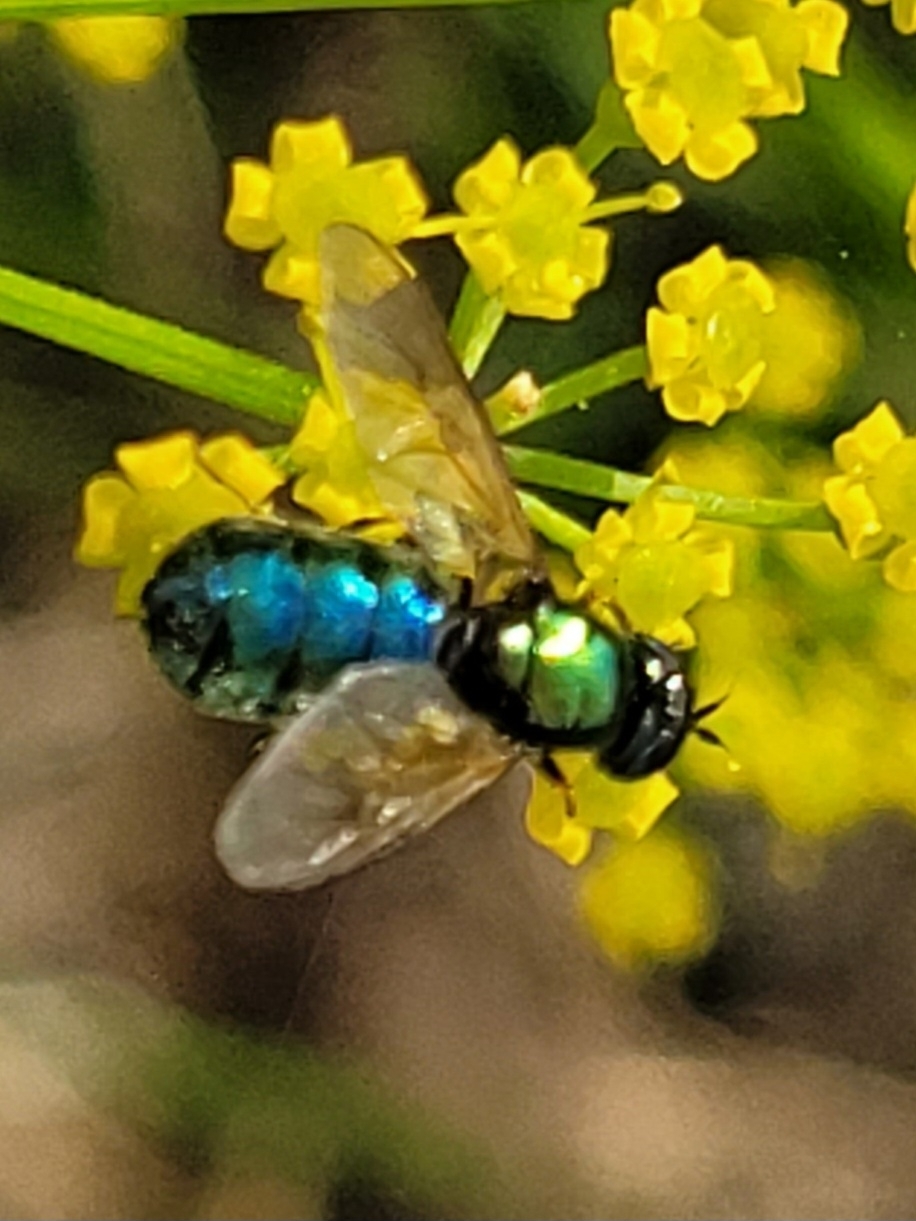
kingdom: Animalia
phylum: Arthropoda
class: Insecta
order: Diptera
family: Stratiomyidae
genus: Chloromyia
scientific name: Chloromyia formosa
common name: Soldier fly
